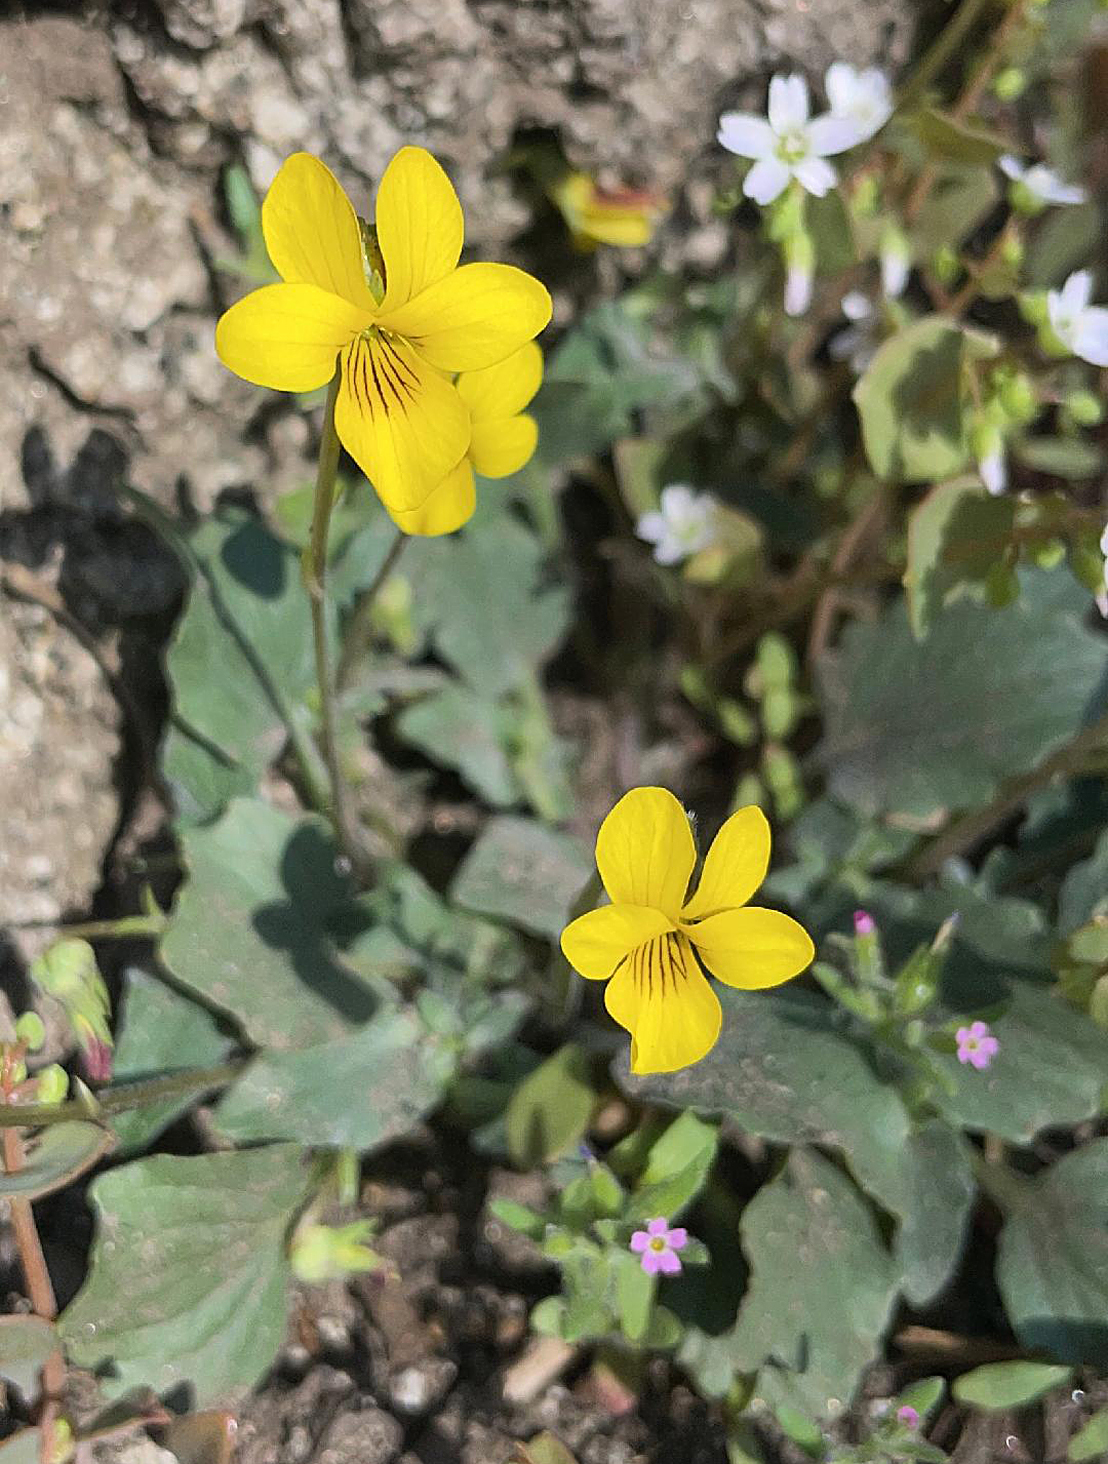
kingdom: Plantae
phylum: Tracheophyta
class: Magnoliopsida
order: Malpighiales
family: Violaceae
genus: Viola
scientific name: Viola purpurea
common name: Pine violet
